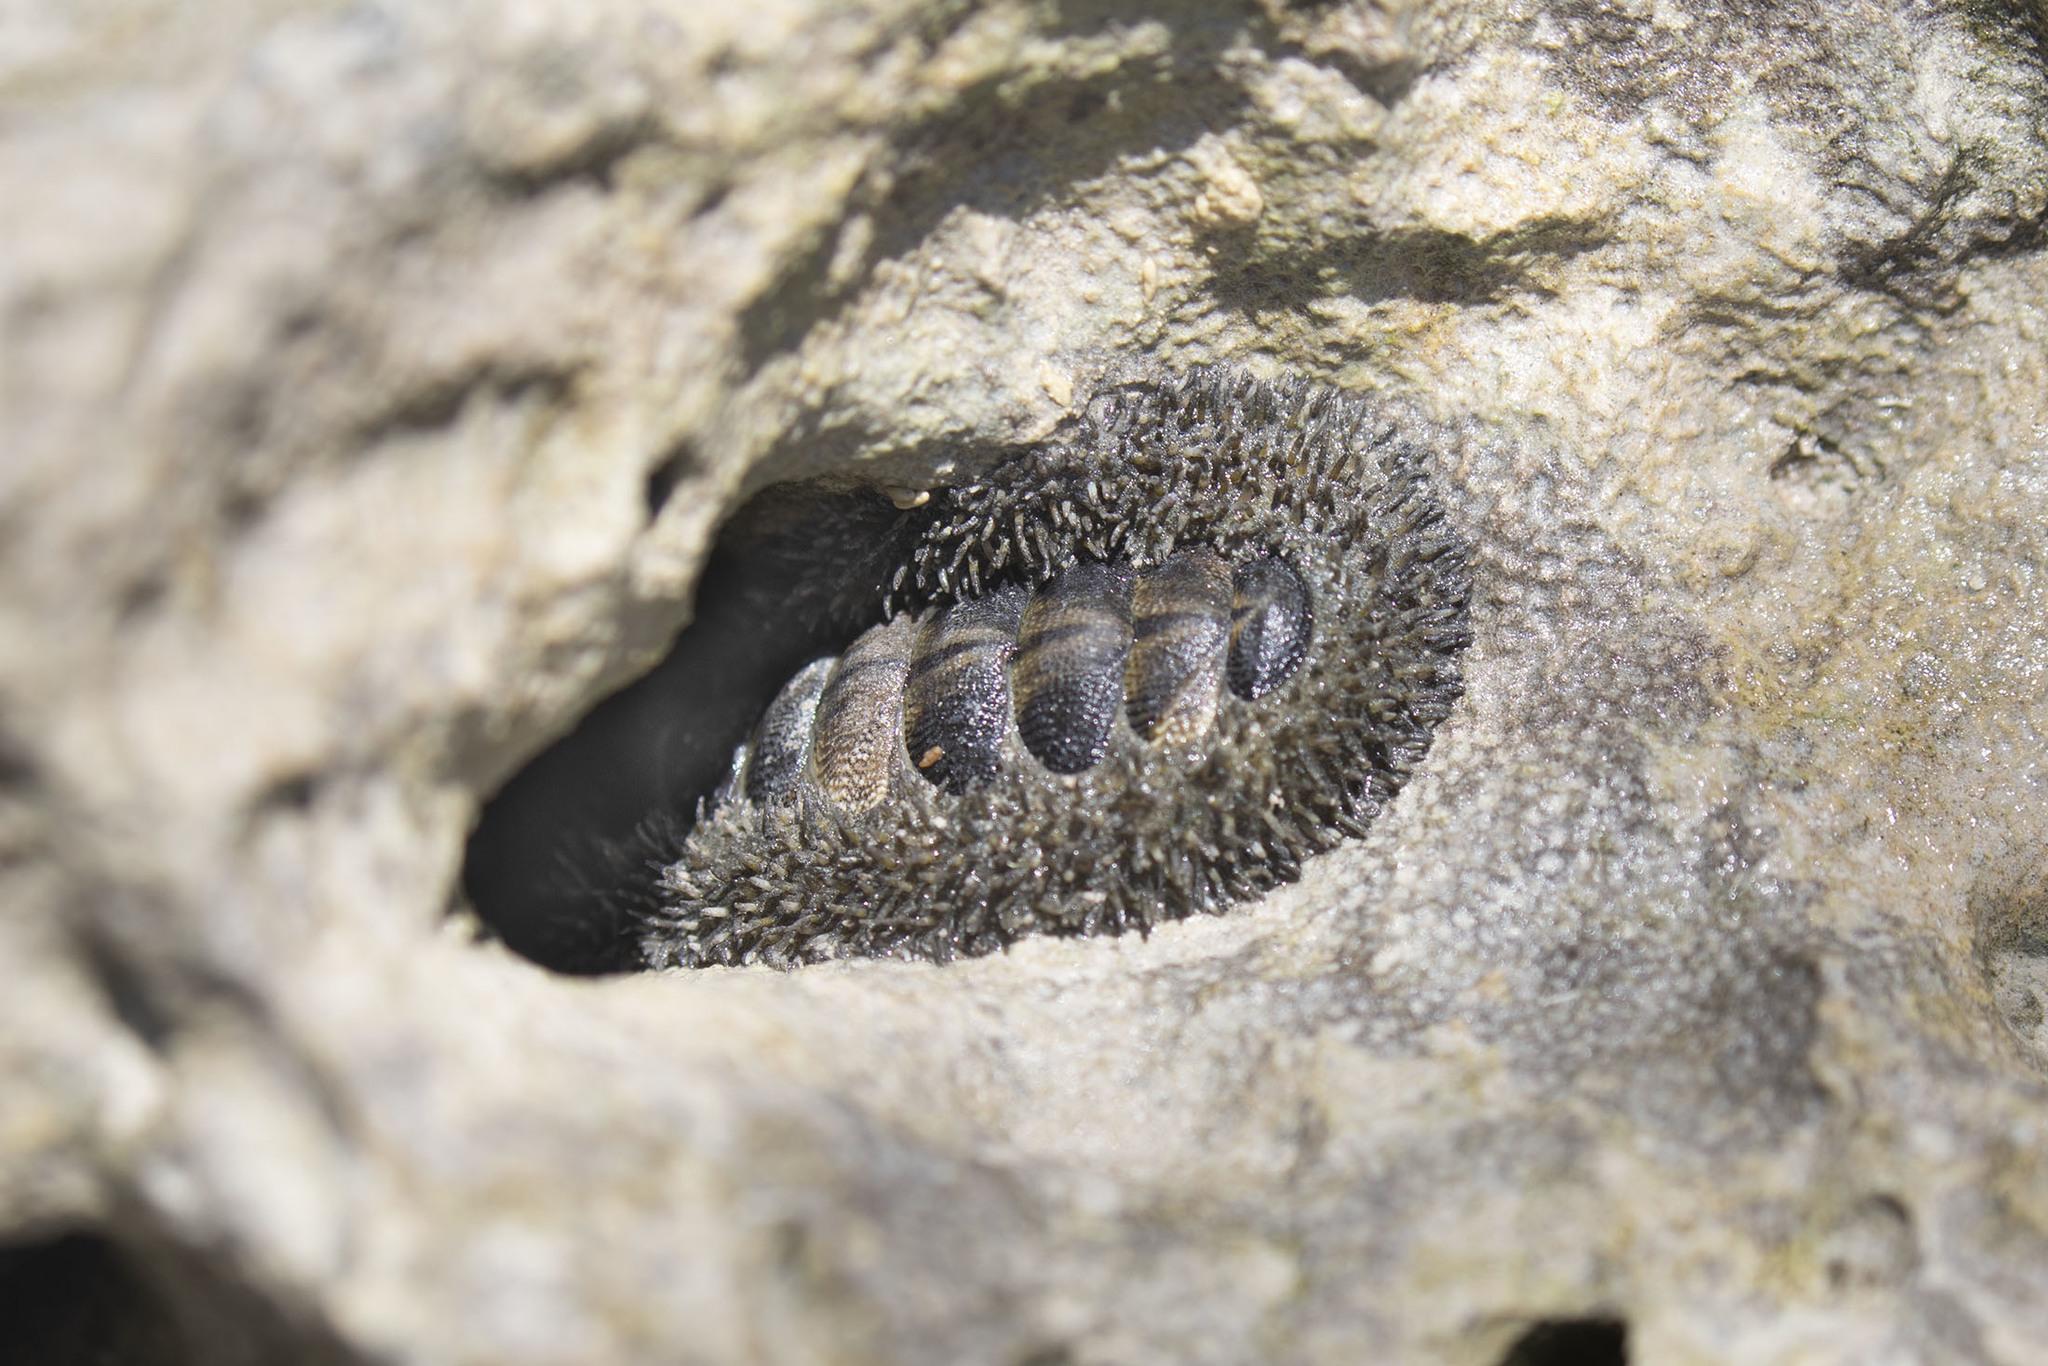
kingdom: Animalia
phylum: Mollusca
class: Polyplacophora
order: Chitonida
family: Chitonidae
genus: Acanthopleura
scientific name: Acanthopleura gemmata
